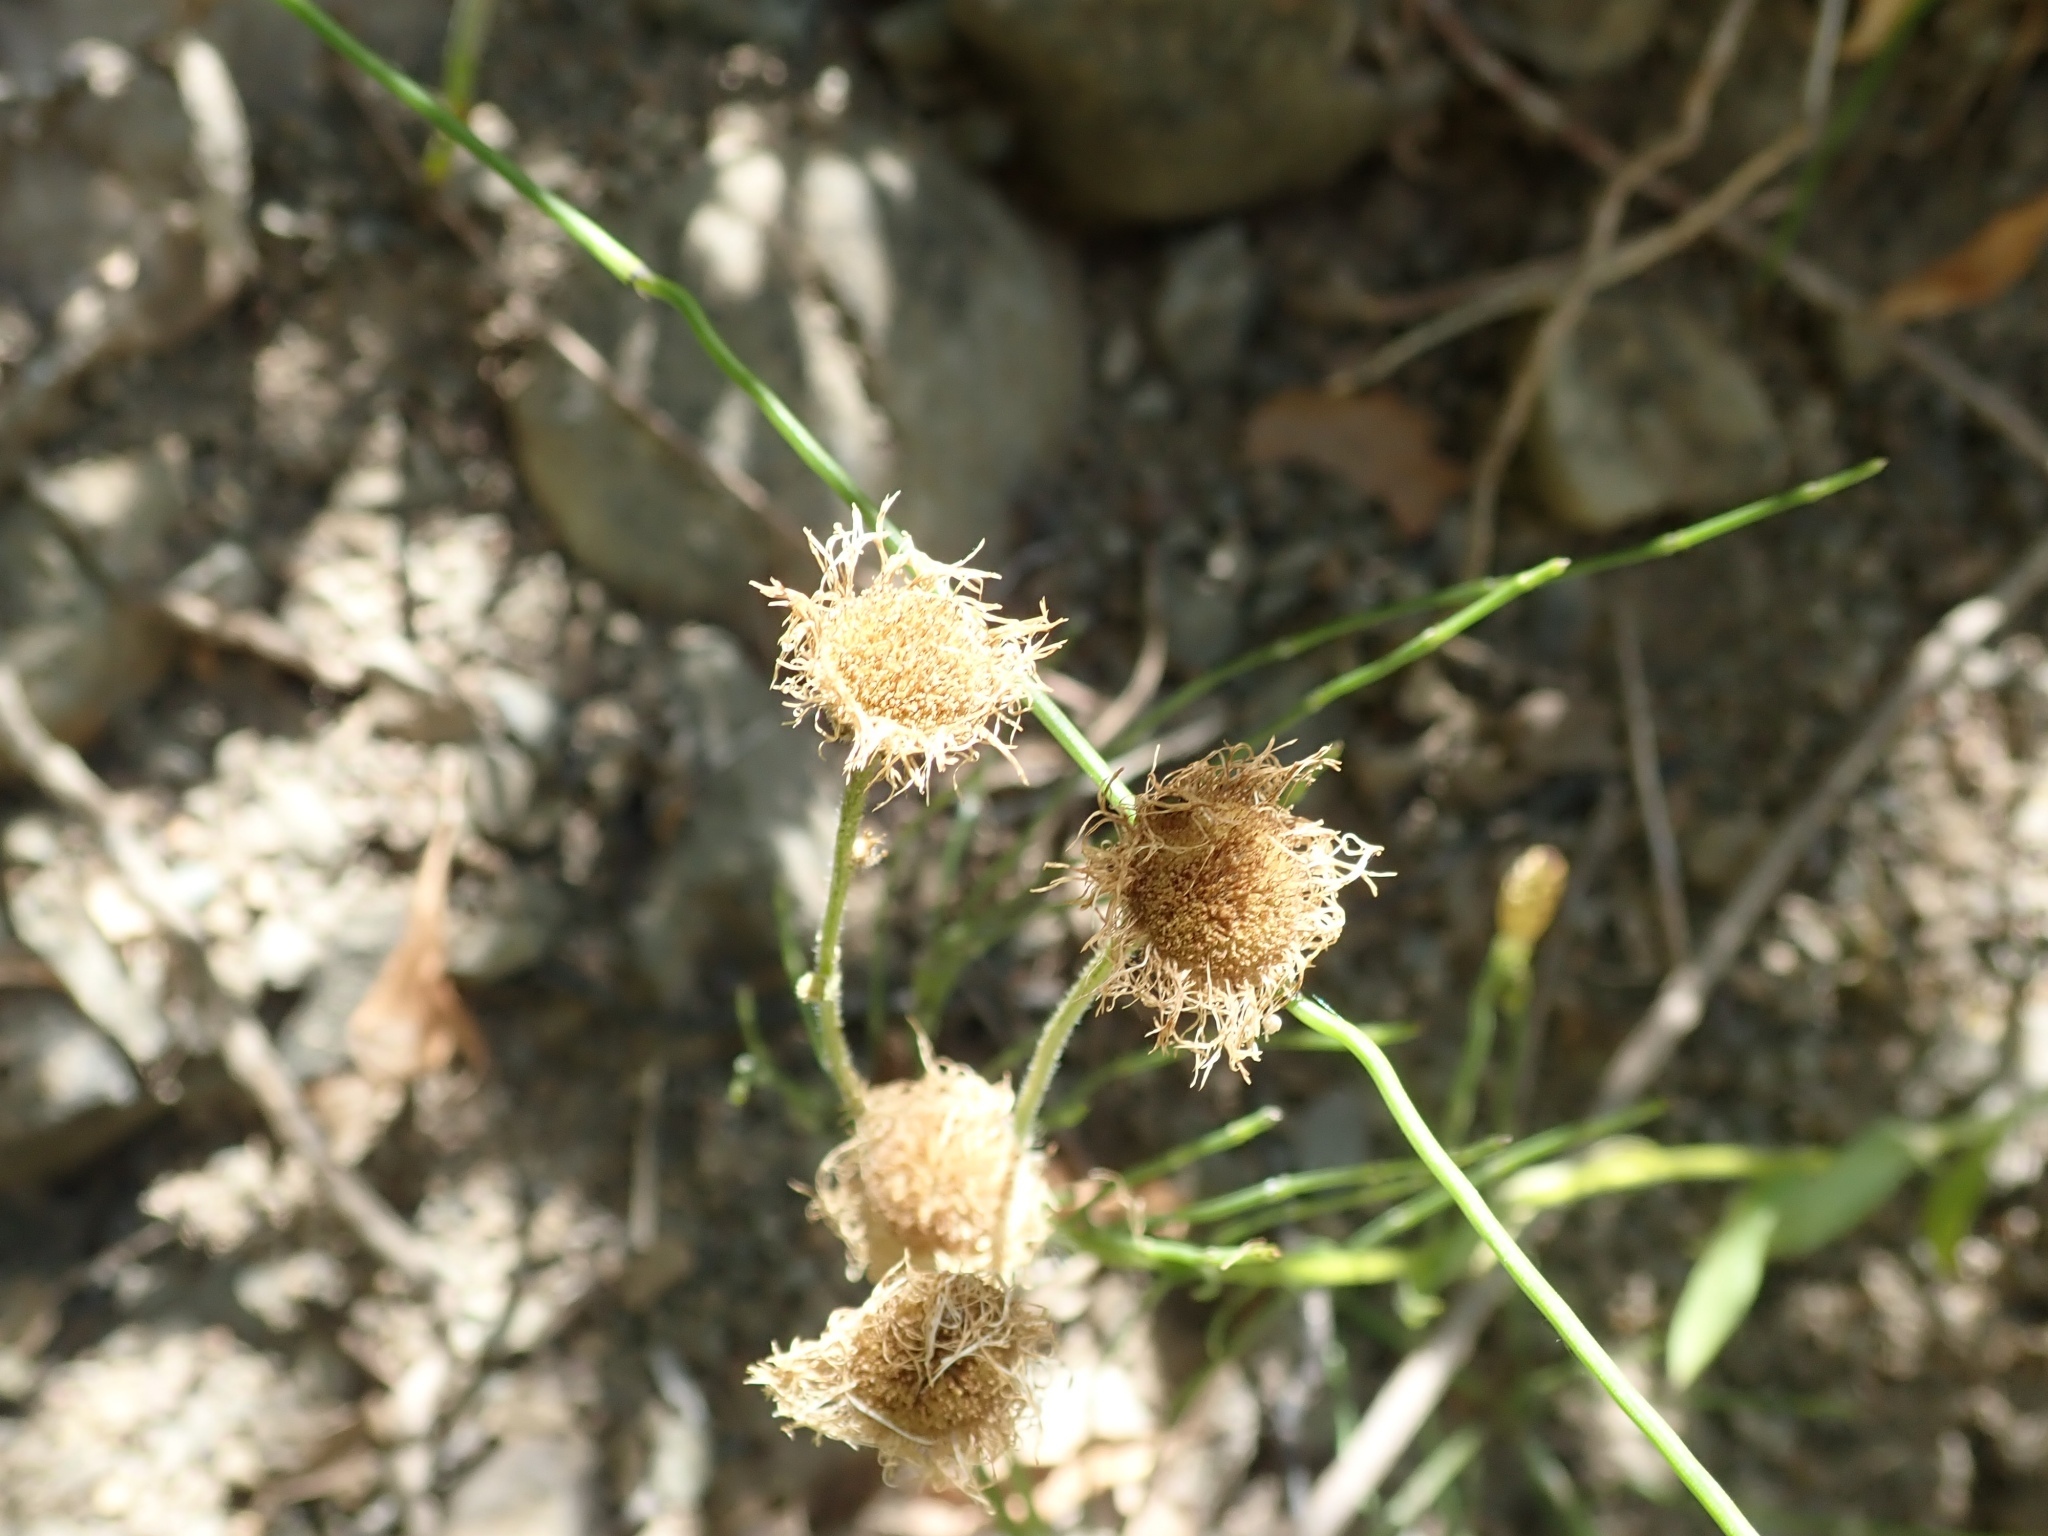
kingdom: Plantae
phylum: Tracheophyta
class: Magnoliopsida
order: Asterales
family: Asteraceae
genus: Erigeron
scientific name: Erigeron philadelphicus
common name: Robin's-plantain
